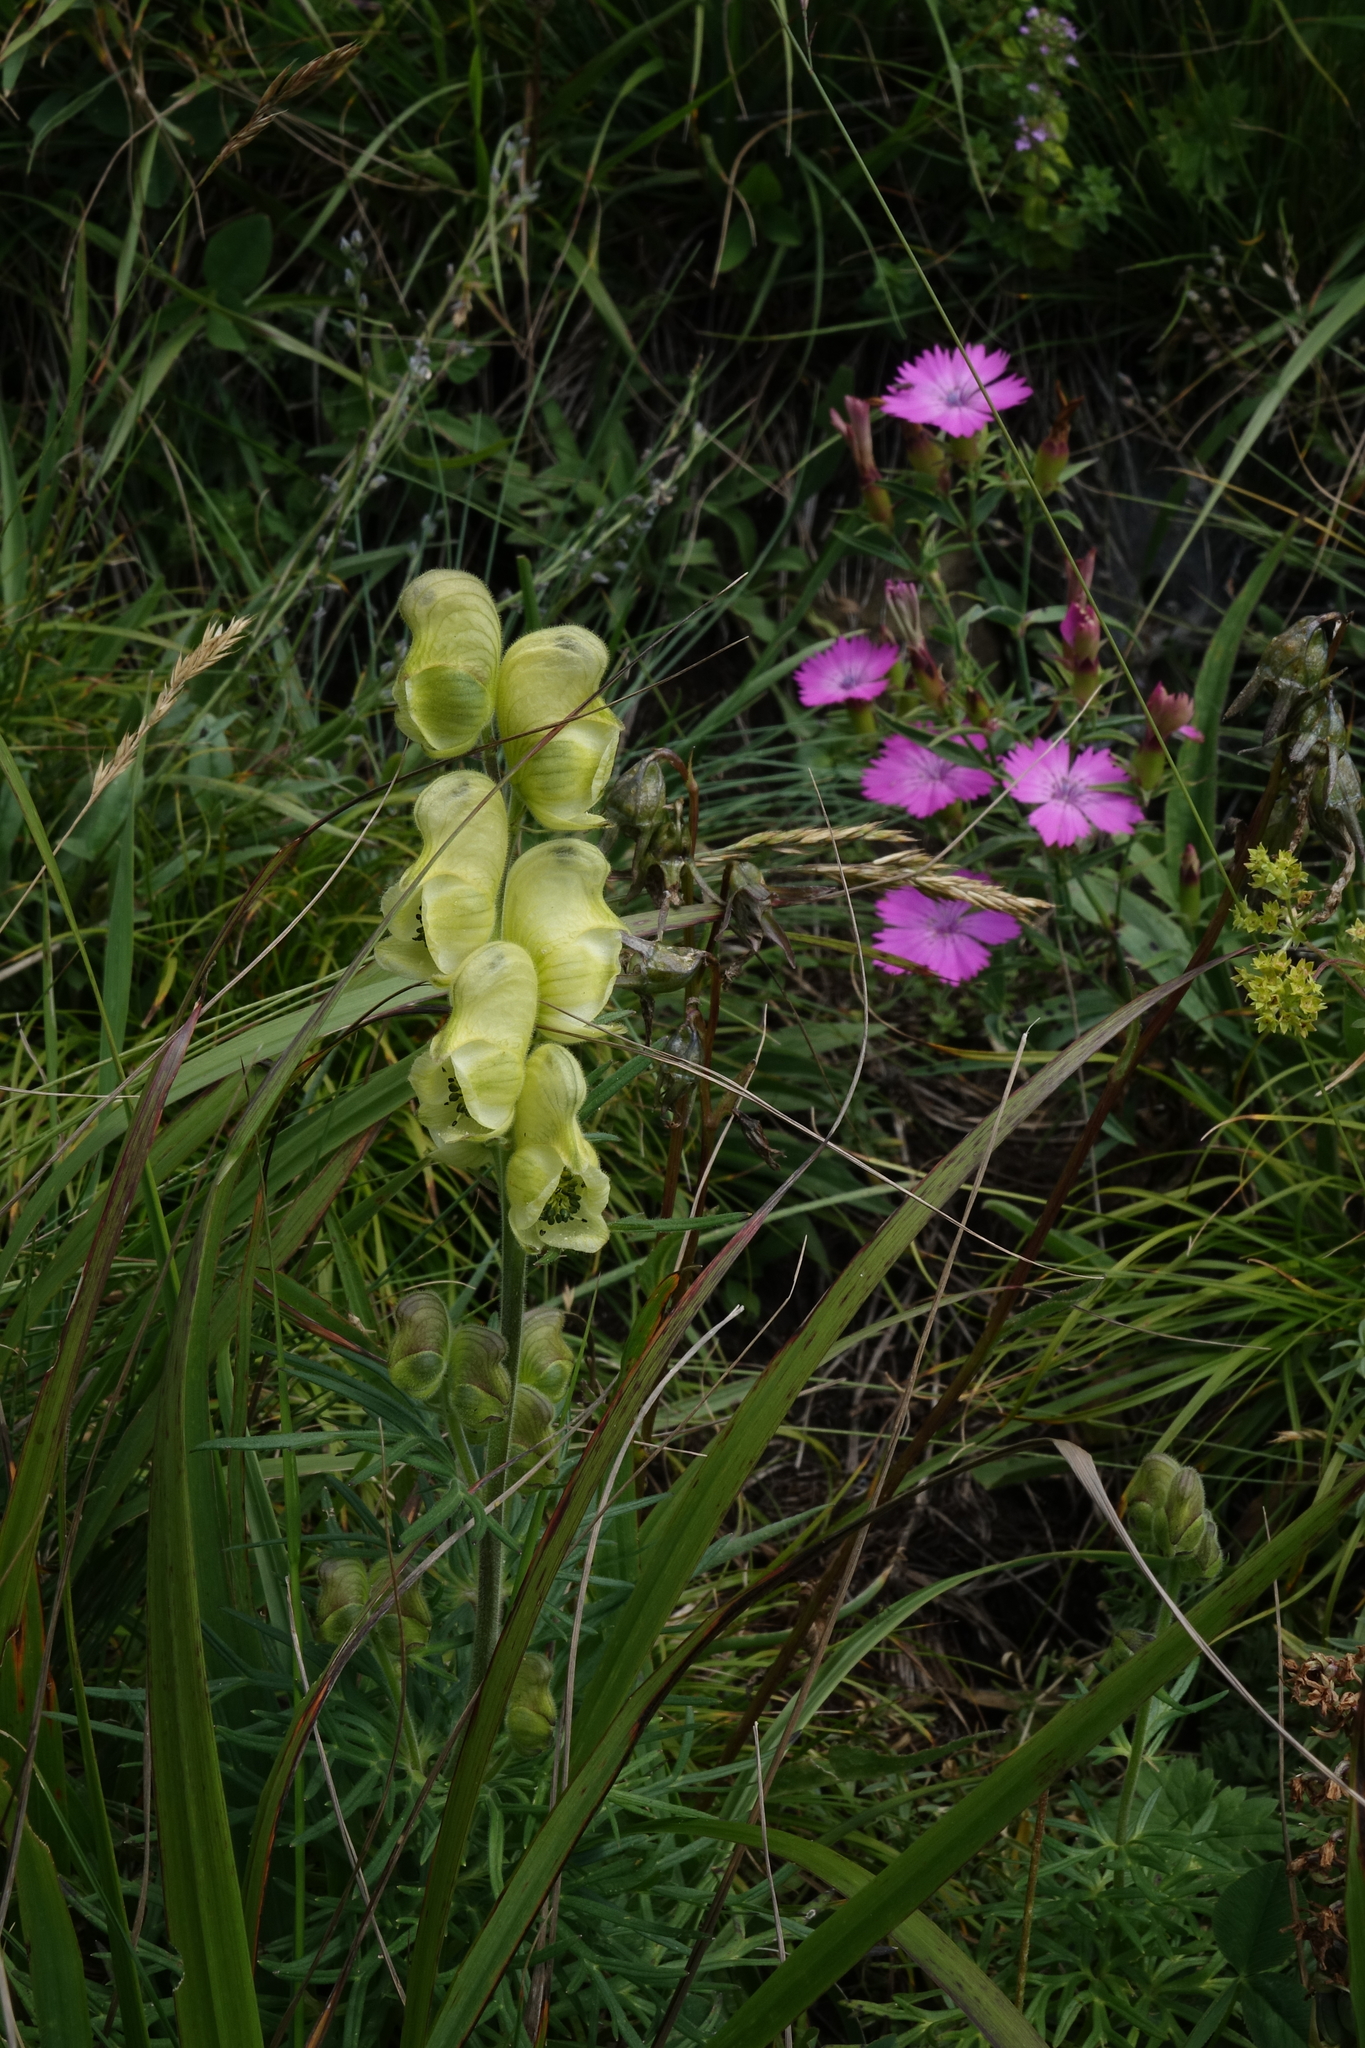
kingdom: Plantae
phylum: Tracheophyta
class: Magnoliopsida
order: Ranunculales
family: Ranunculaceae
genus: Aconitum
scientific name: Aconitum anthora
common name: Yellow monkshood
